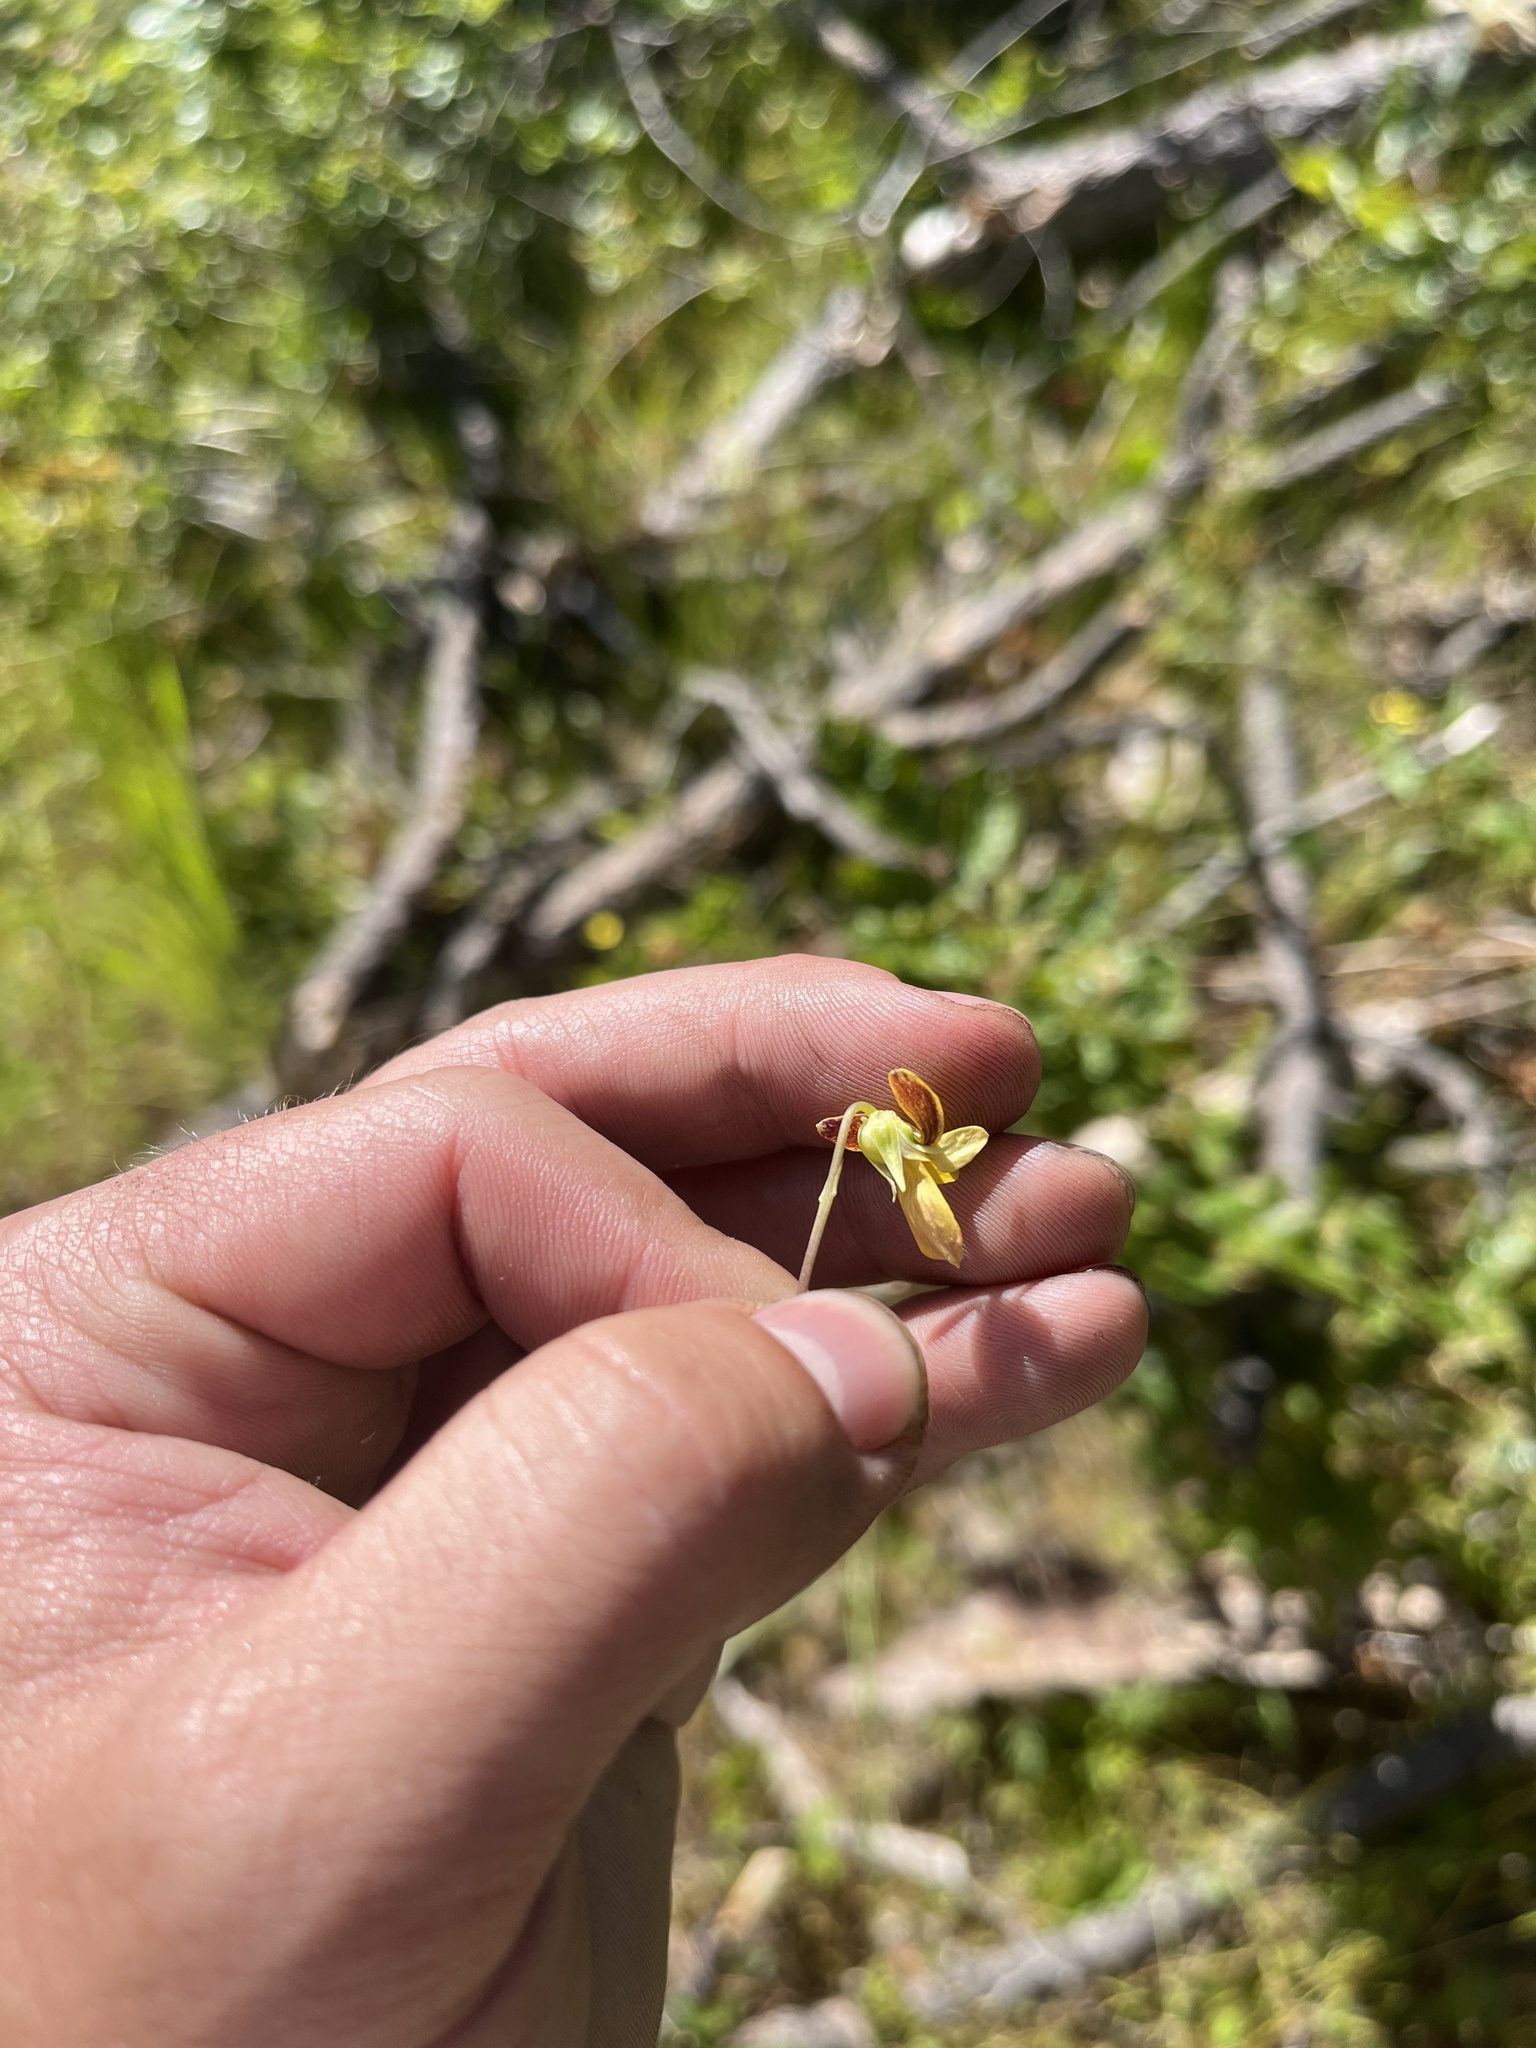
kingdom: Plantae
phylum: Tracheophyta
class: Magnoliopsida
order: Malpighiales
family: Violaceae
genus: Viola
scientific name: Viola lobata
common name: Pine violet
